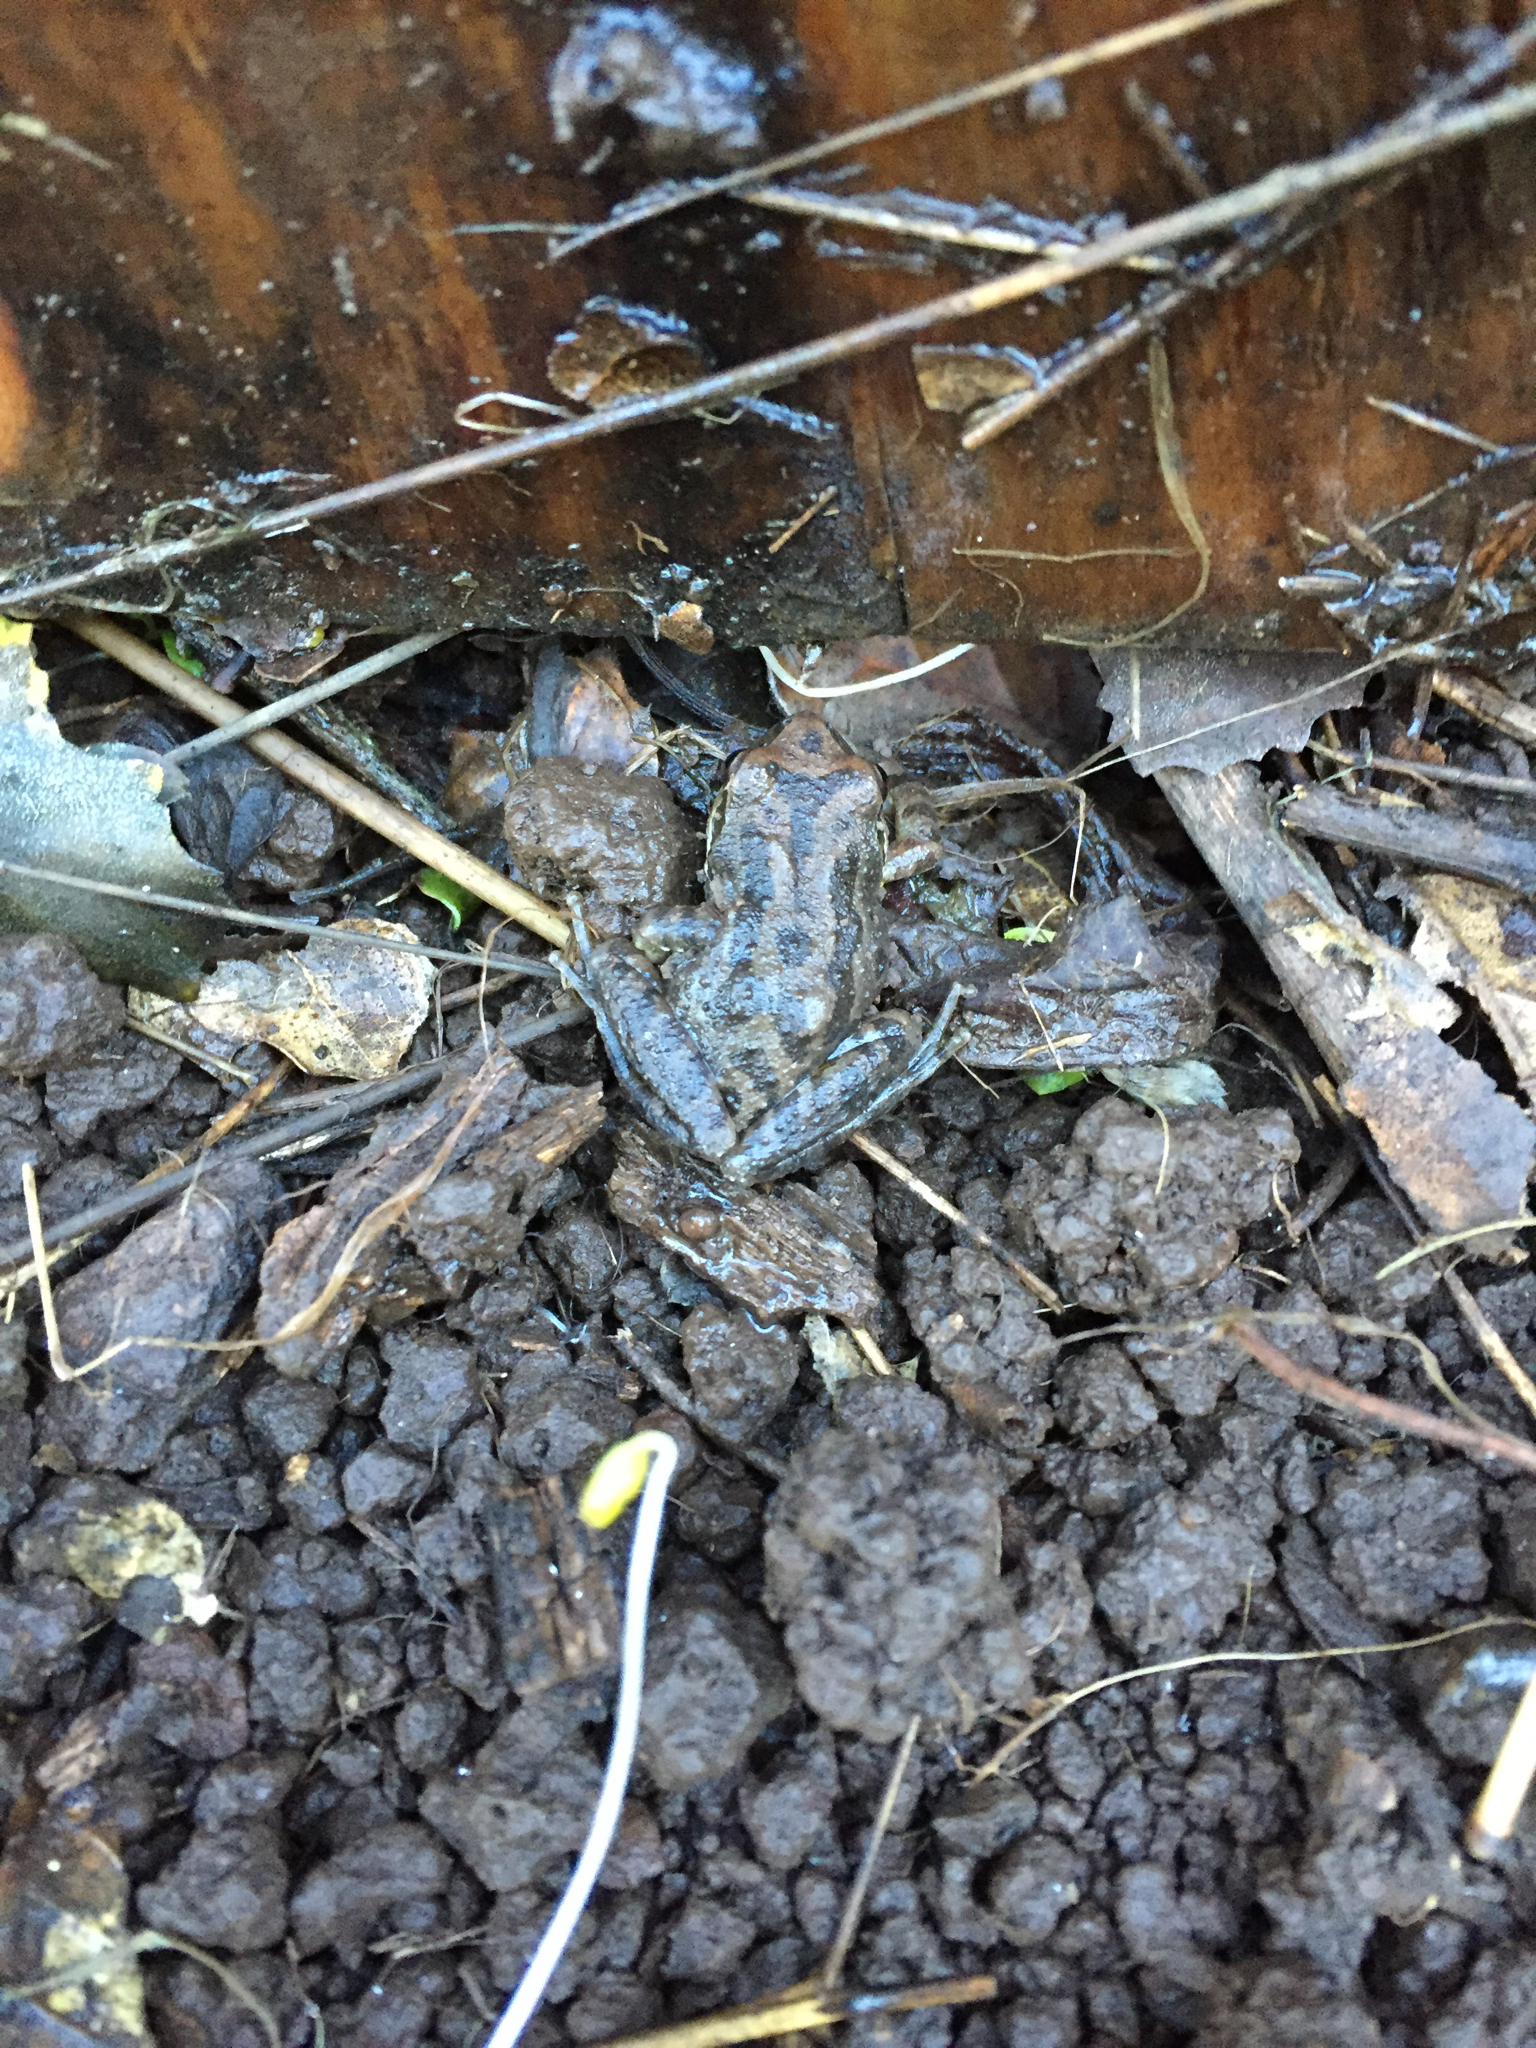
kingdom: Animalia
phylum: Chordata
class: Amphibia
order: Anura
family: Hylidae
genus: Pseudacris
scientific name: Pseudacris regilla
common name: Pacific chorus frog
